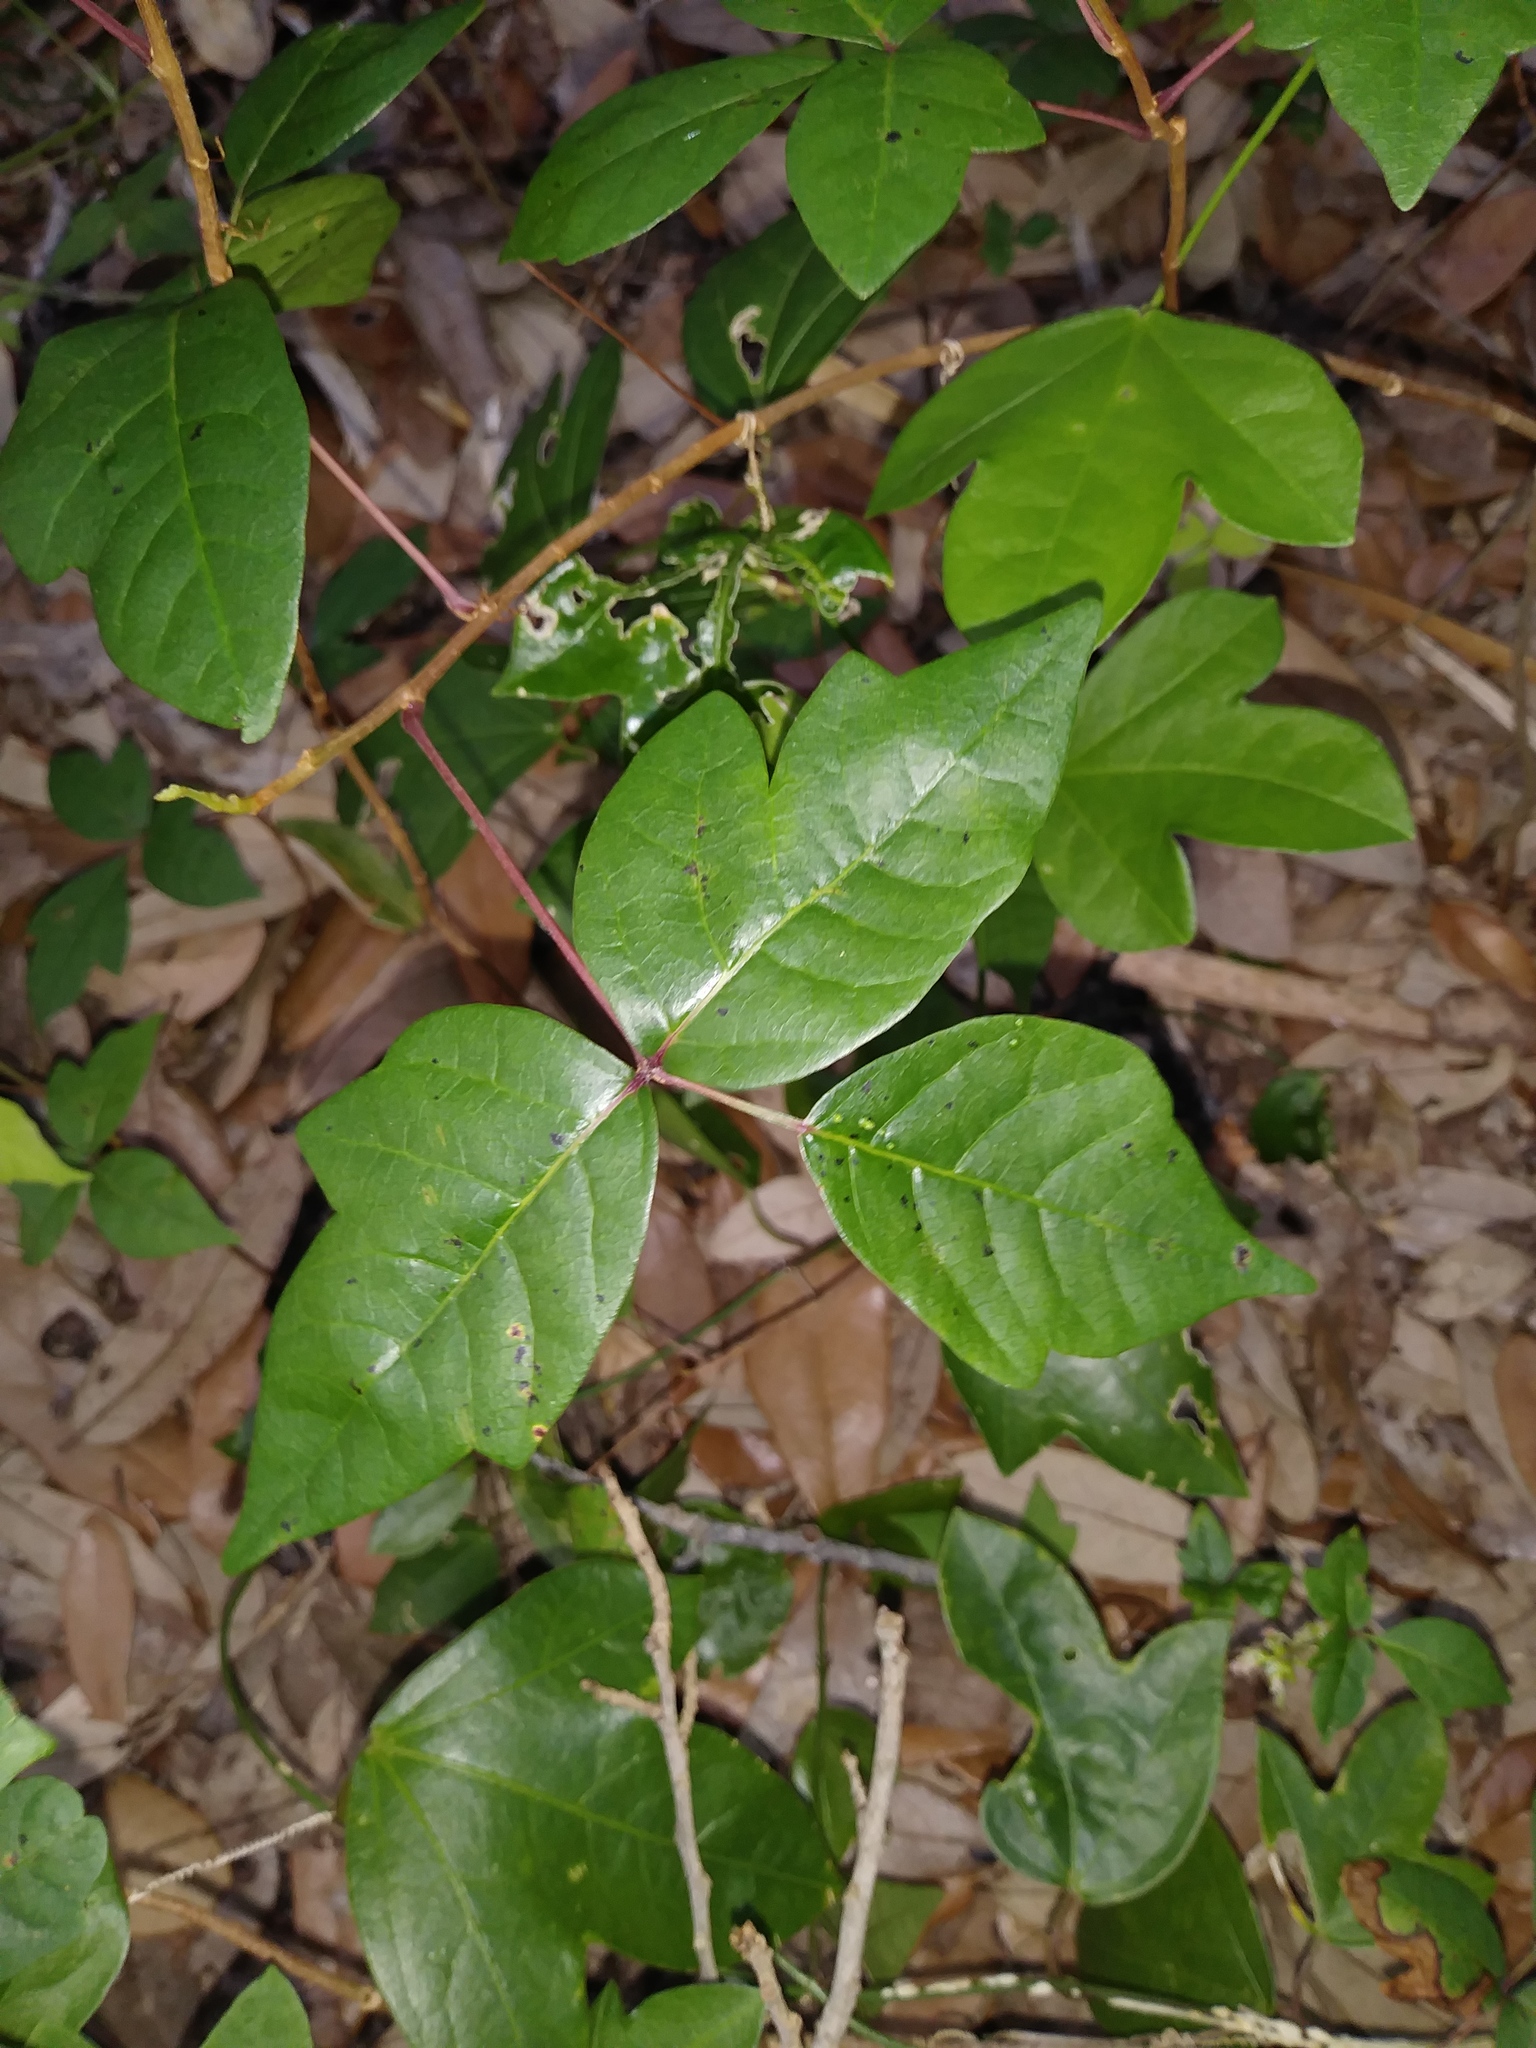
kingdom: Plantae
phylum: Tracheophyta
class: Magnoliopsida
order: Sapindales
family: Anacardiaceae
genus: Toxicodendron
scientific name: Toxicodendron radicans
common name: Poison ivy
